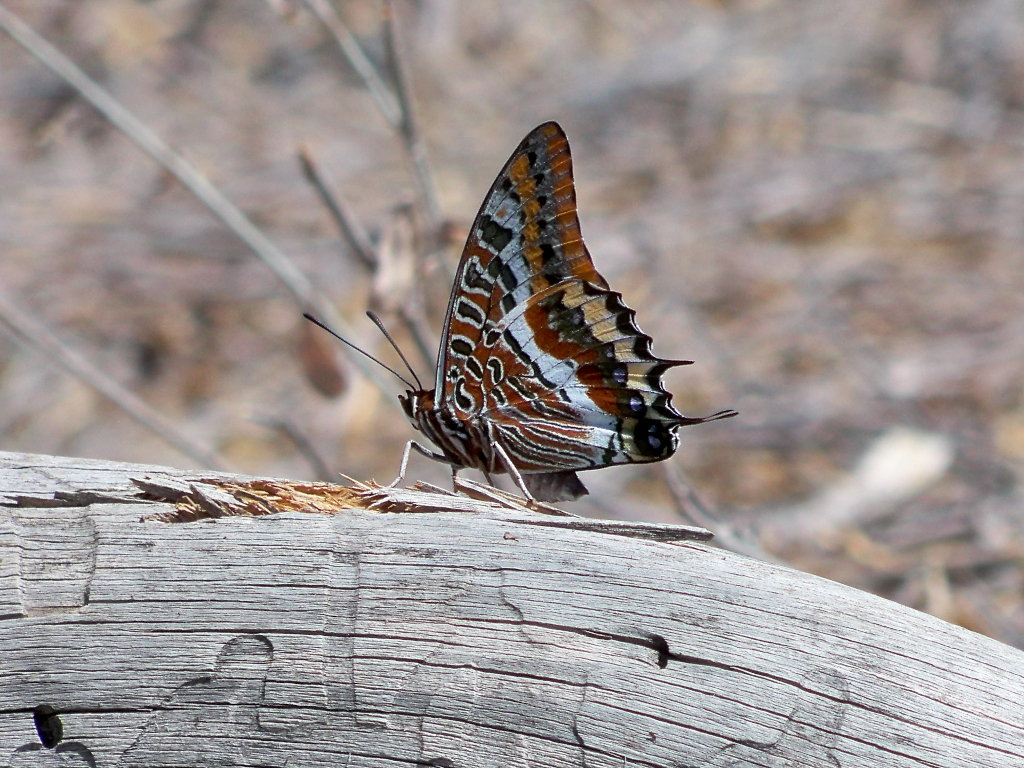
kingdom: Animalia
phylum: Arthropoda
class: Insecta
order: Lepidoptera
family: Nymphalidae
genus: Charaxes
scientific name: Charaxes jasius
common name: Two tailed pasha
